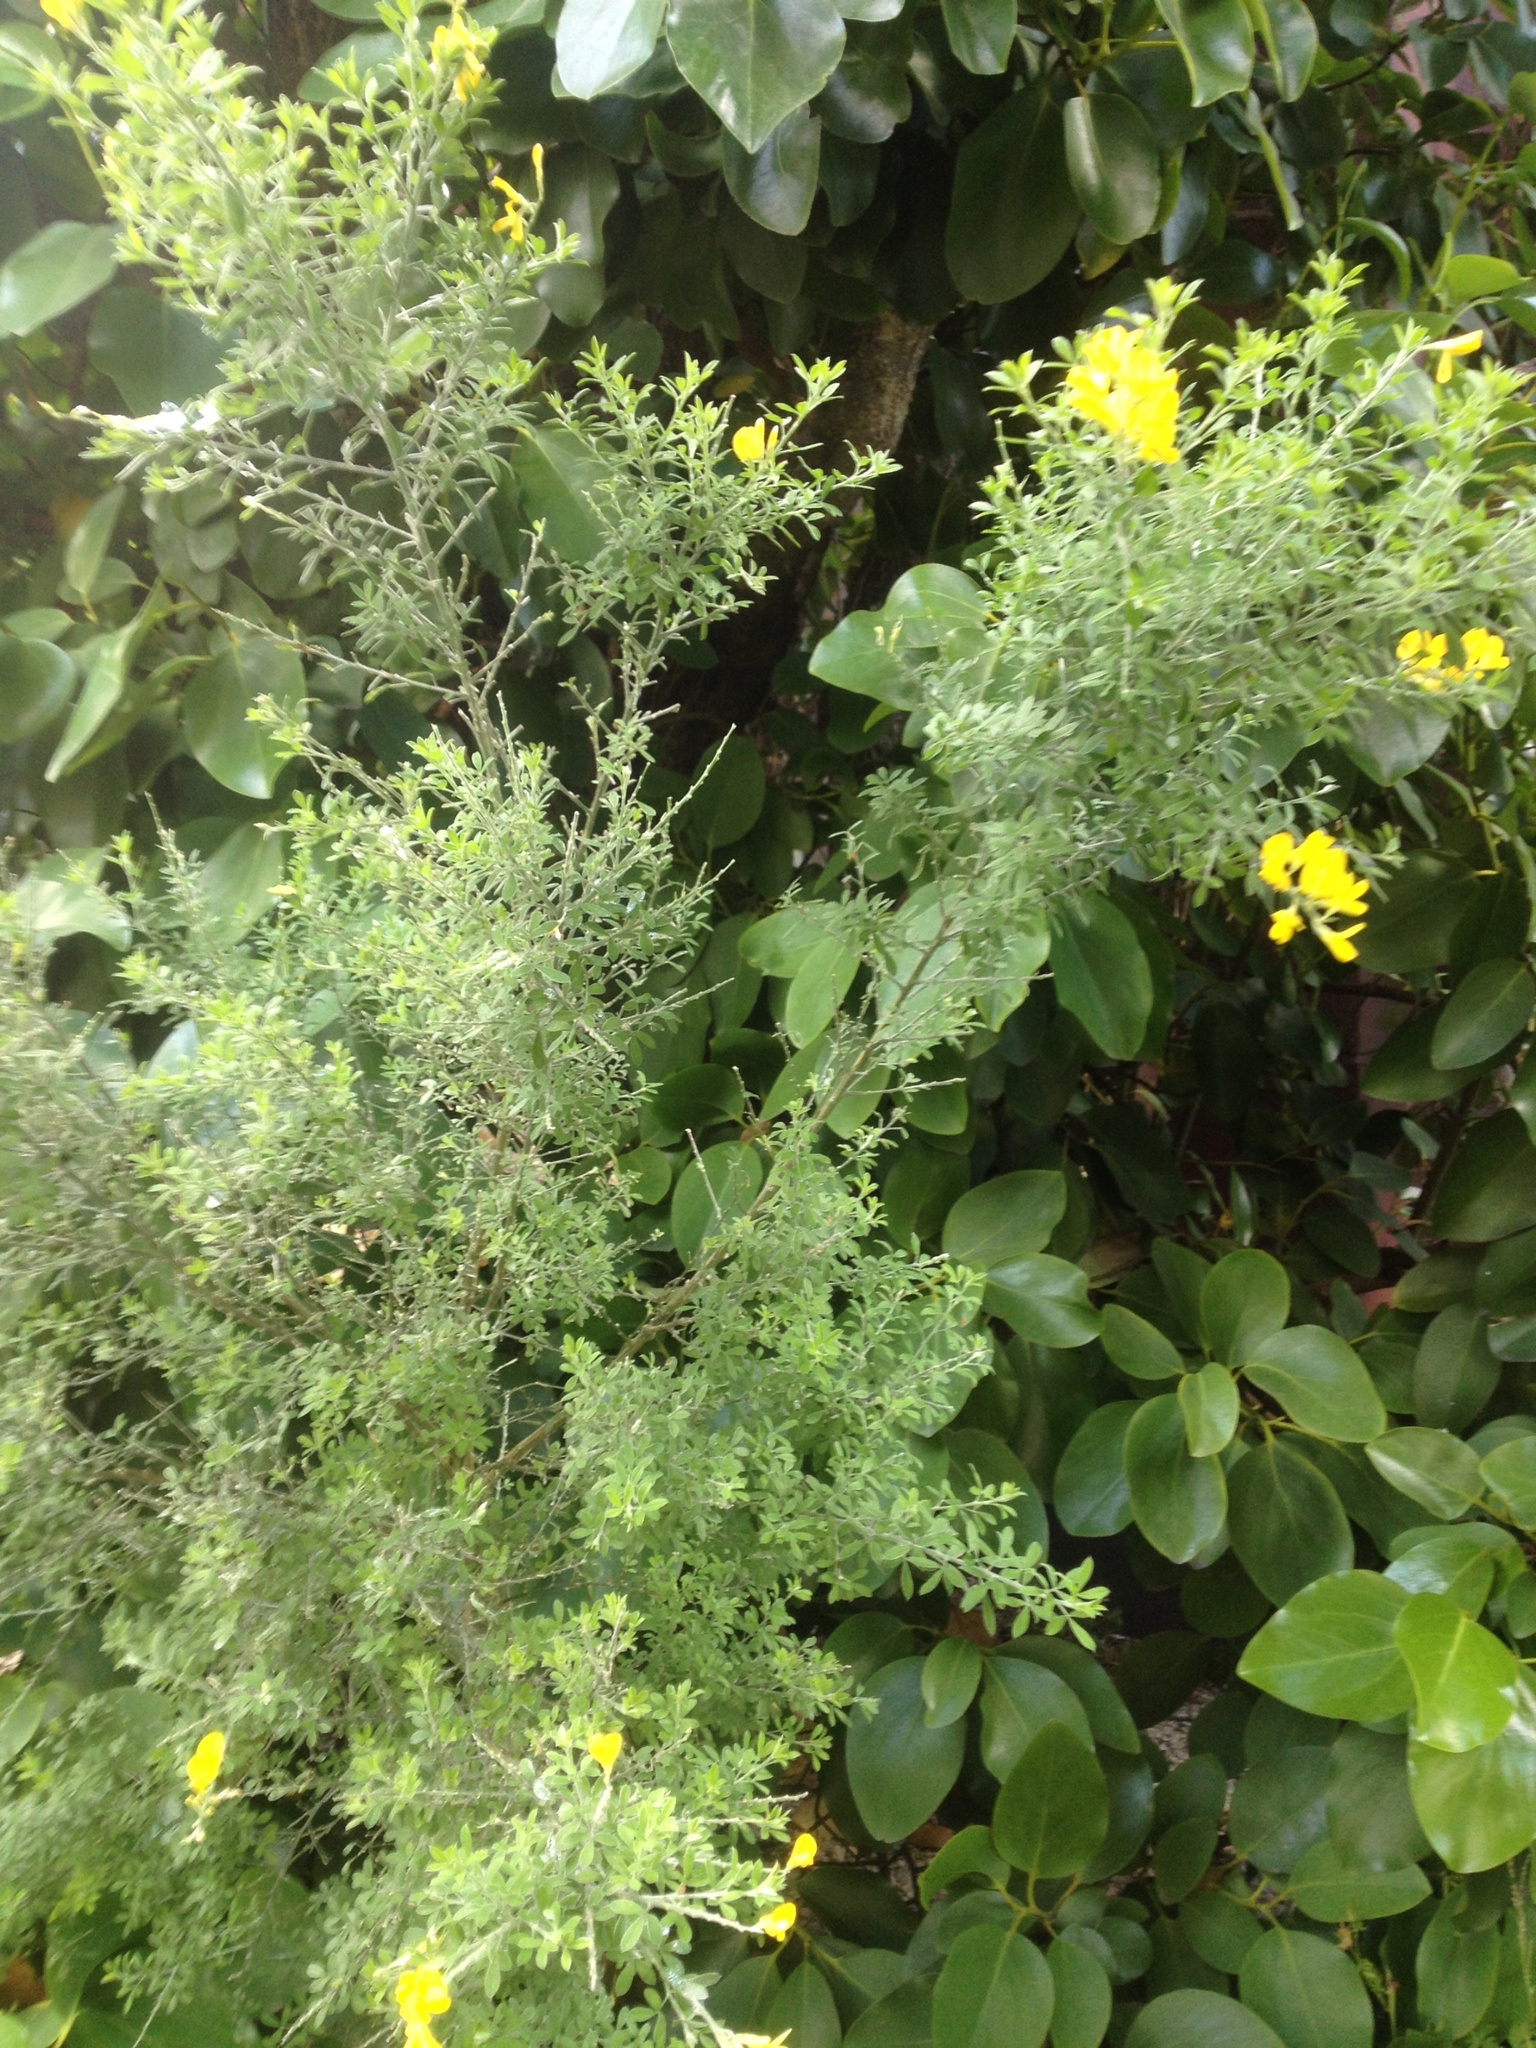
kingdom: Plantae
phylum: Tracheophyta
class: Magnoliopsida
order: Fabales
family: Fabaceae
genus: Genista
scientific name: Genista stenopetala
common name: Leafy broom
